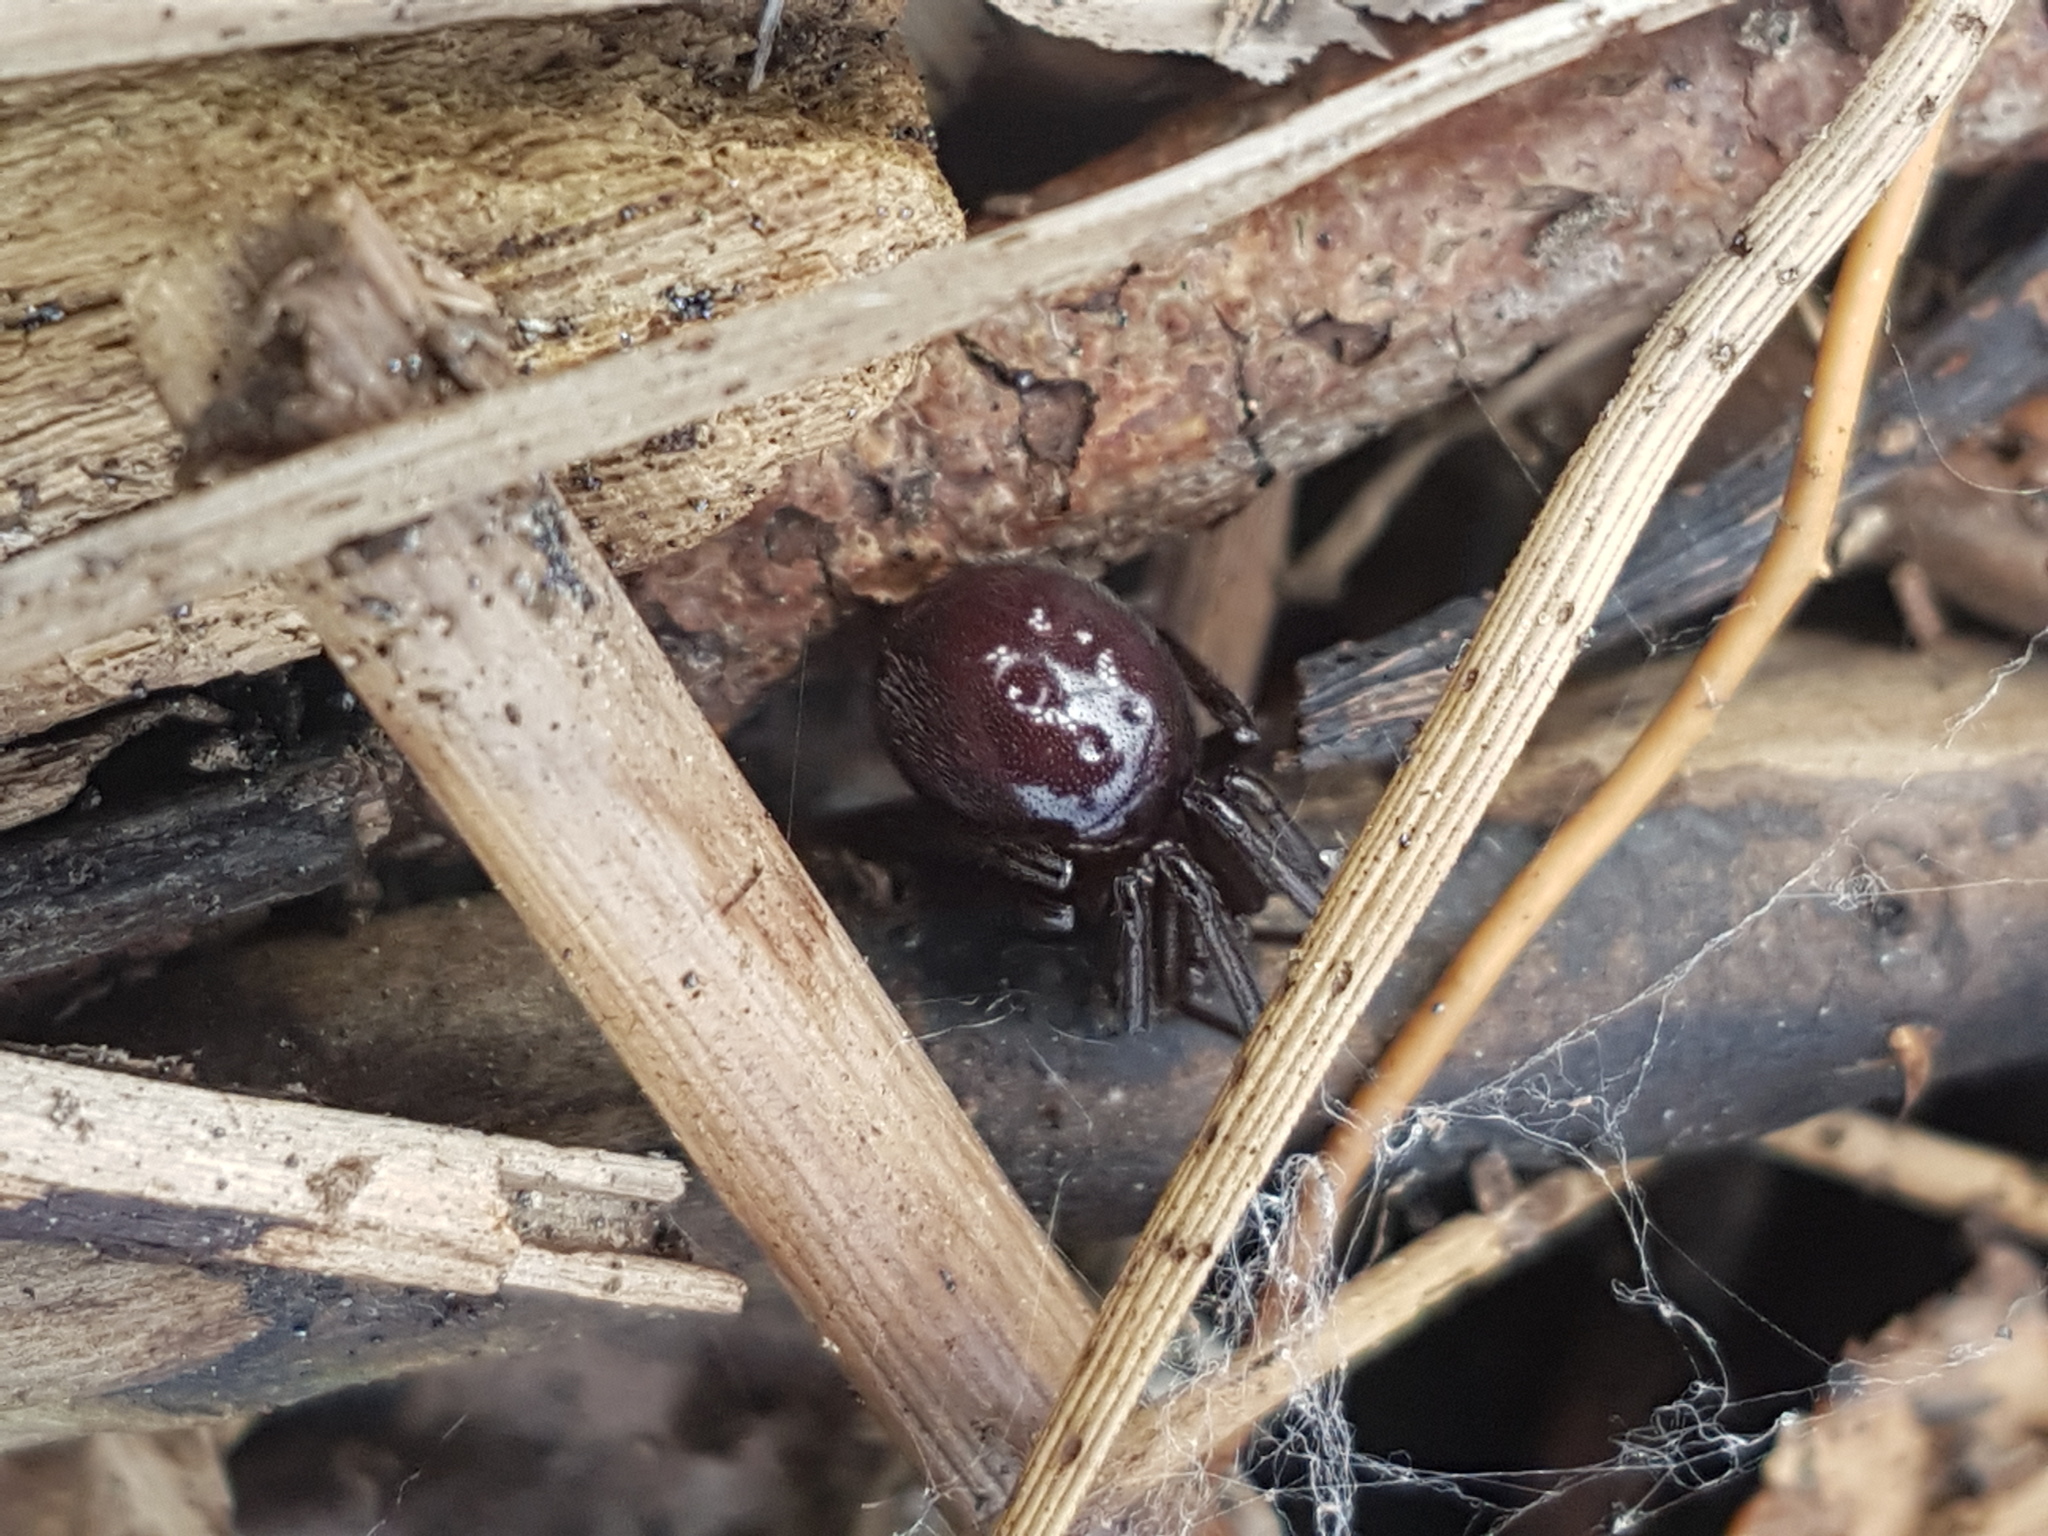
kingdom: Animalia
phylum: Arthropoda
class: Arachnida
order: Araneae
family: Theridiidae
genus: Steatoda
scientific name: Steatoda capensis
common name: Cobweb weaver
